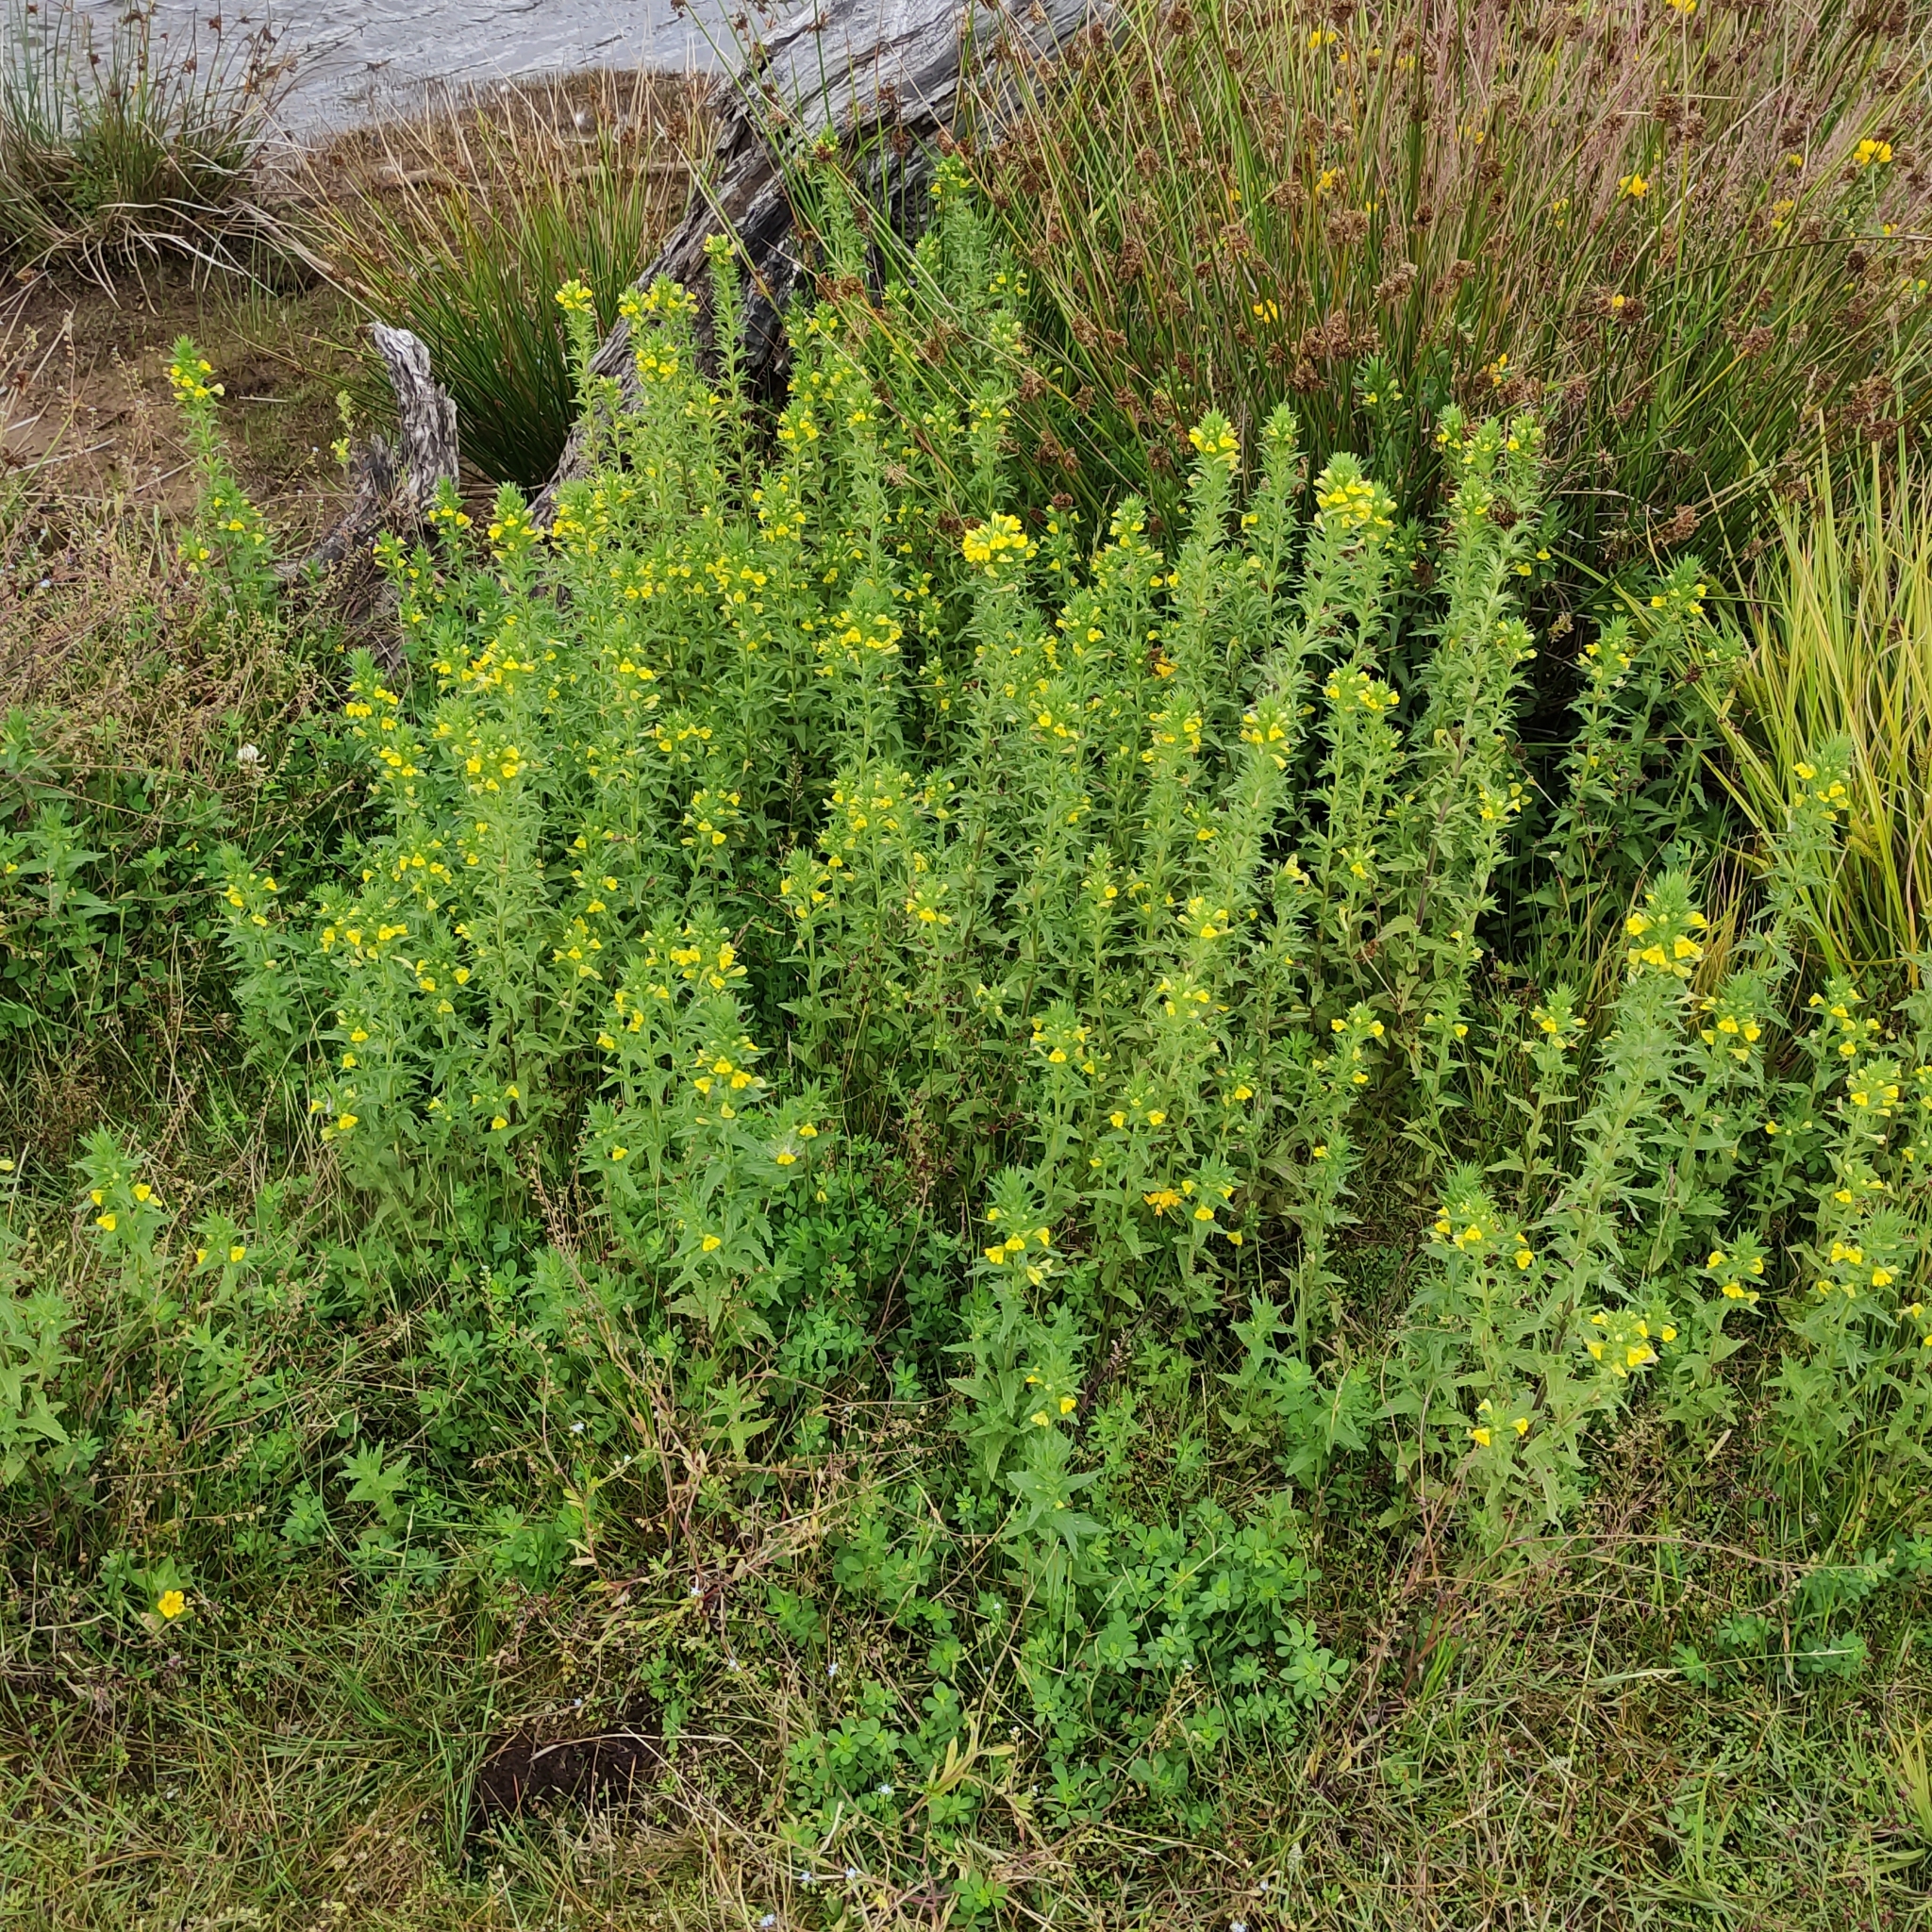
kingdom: Plantae
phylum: Tracheophyta
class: Magnoliopsida
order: Lamiales
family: Orobanchaceae
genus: Bellardia
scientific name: Bellardia viscosa
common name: Sticky parentucellia
